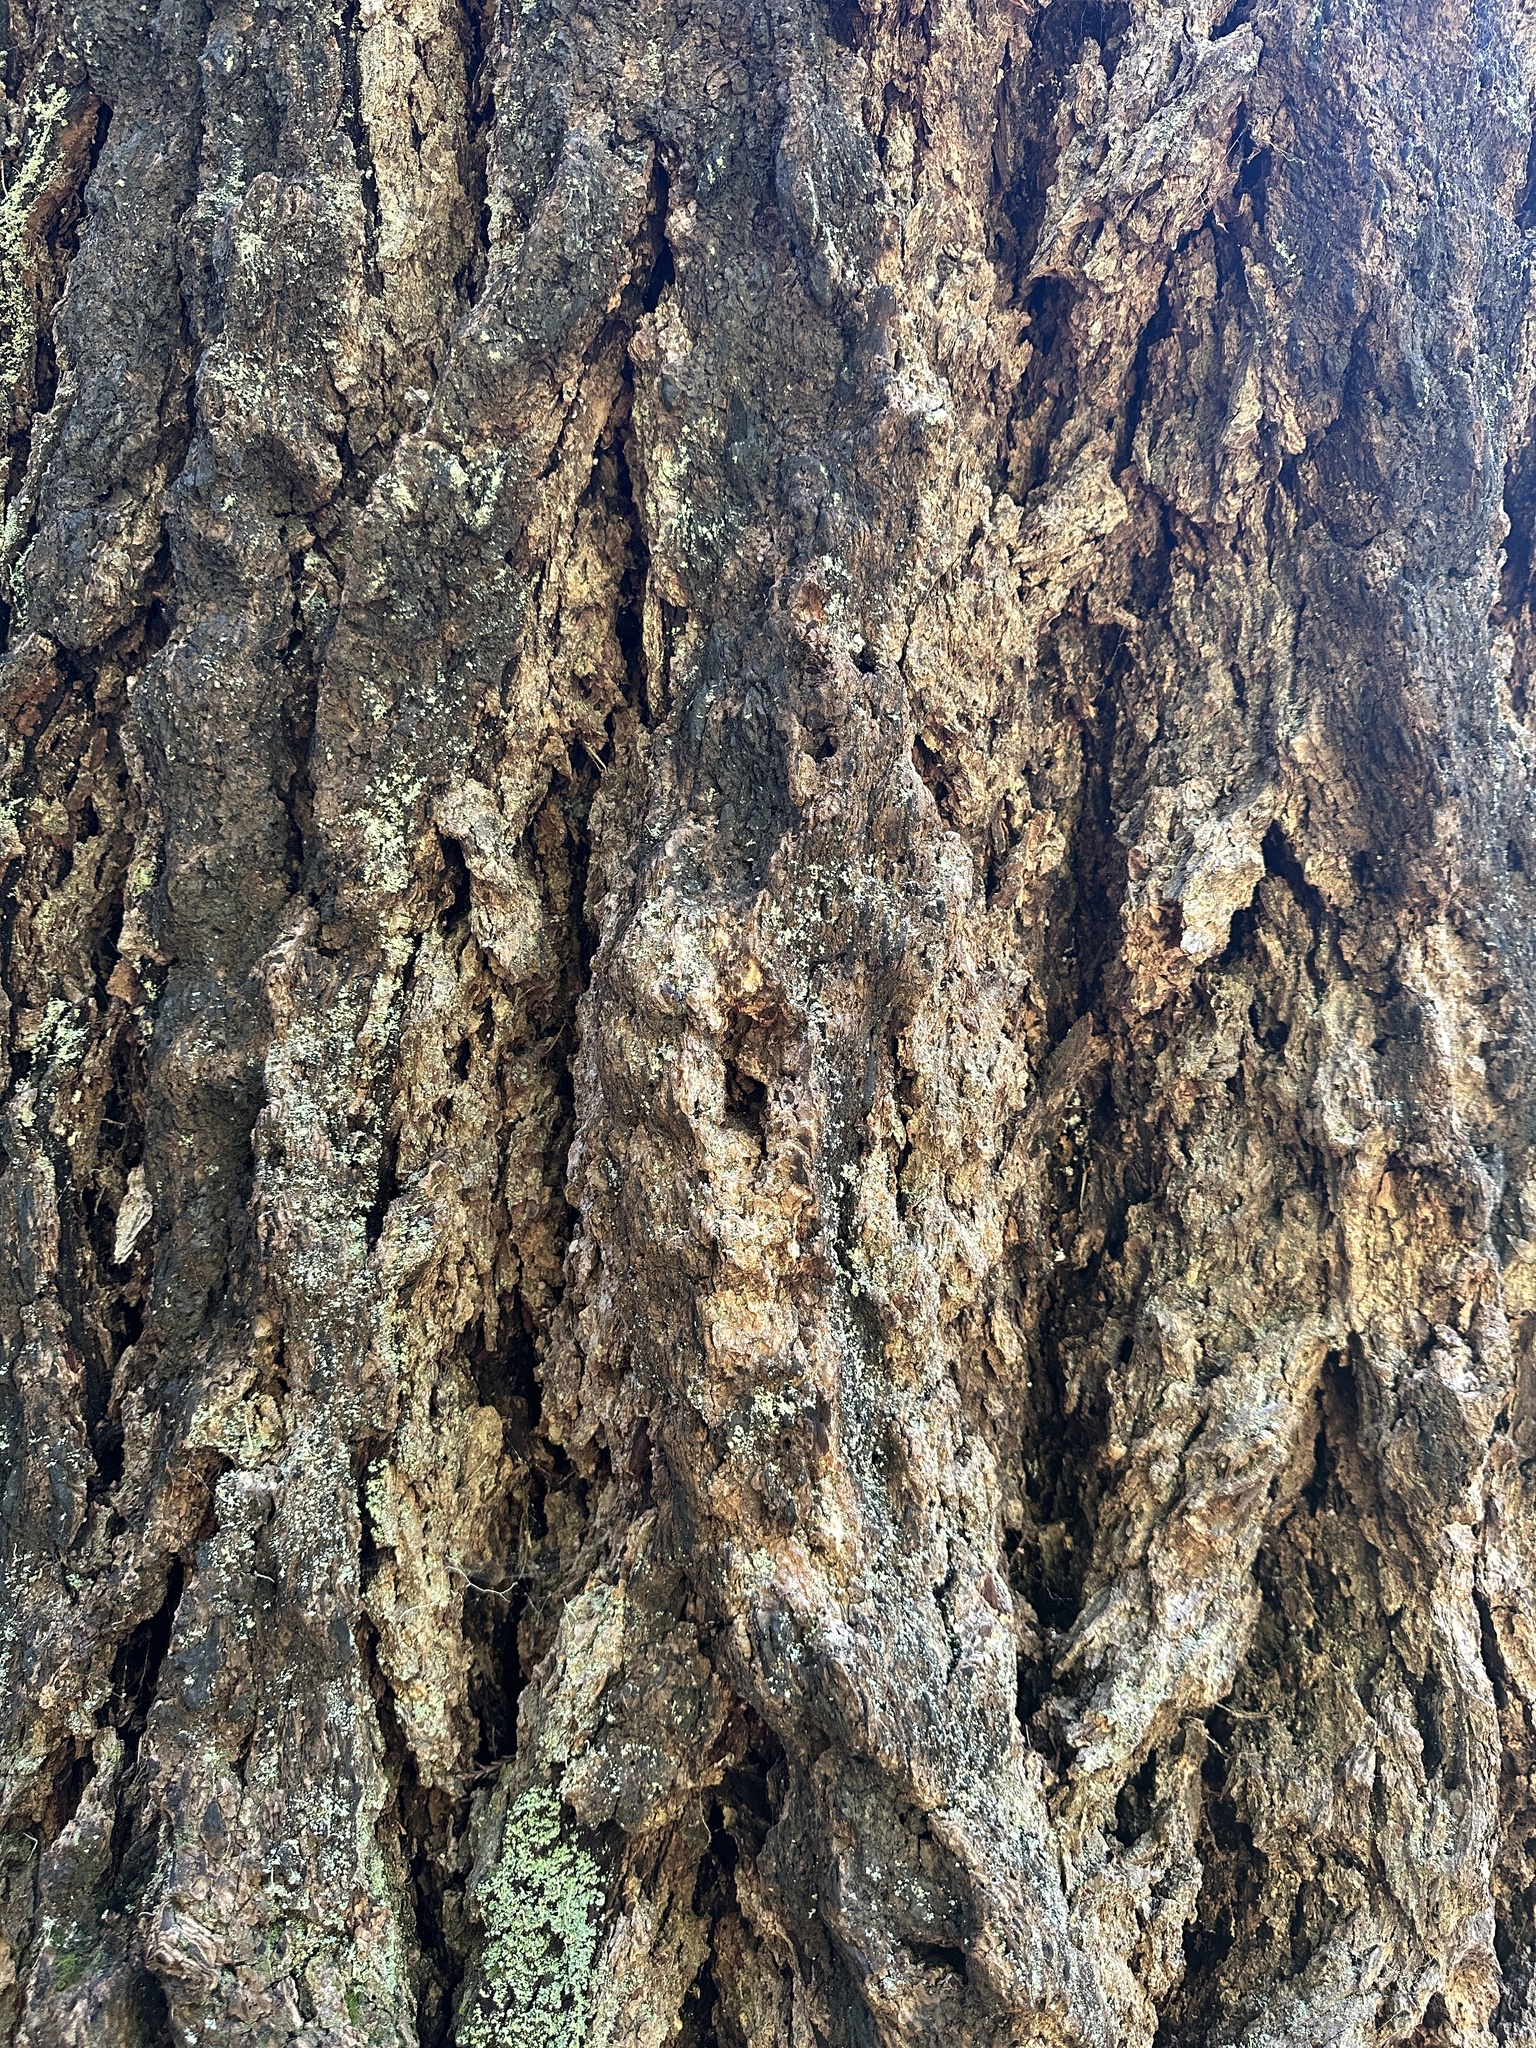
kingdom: Plantae
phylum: Tracheophyta
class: Pinopsida
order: Pinales
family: Pinaceae
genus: Pseudotsuga
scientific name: Pseudotsuga menziesii
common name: Douglas fir
